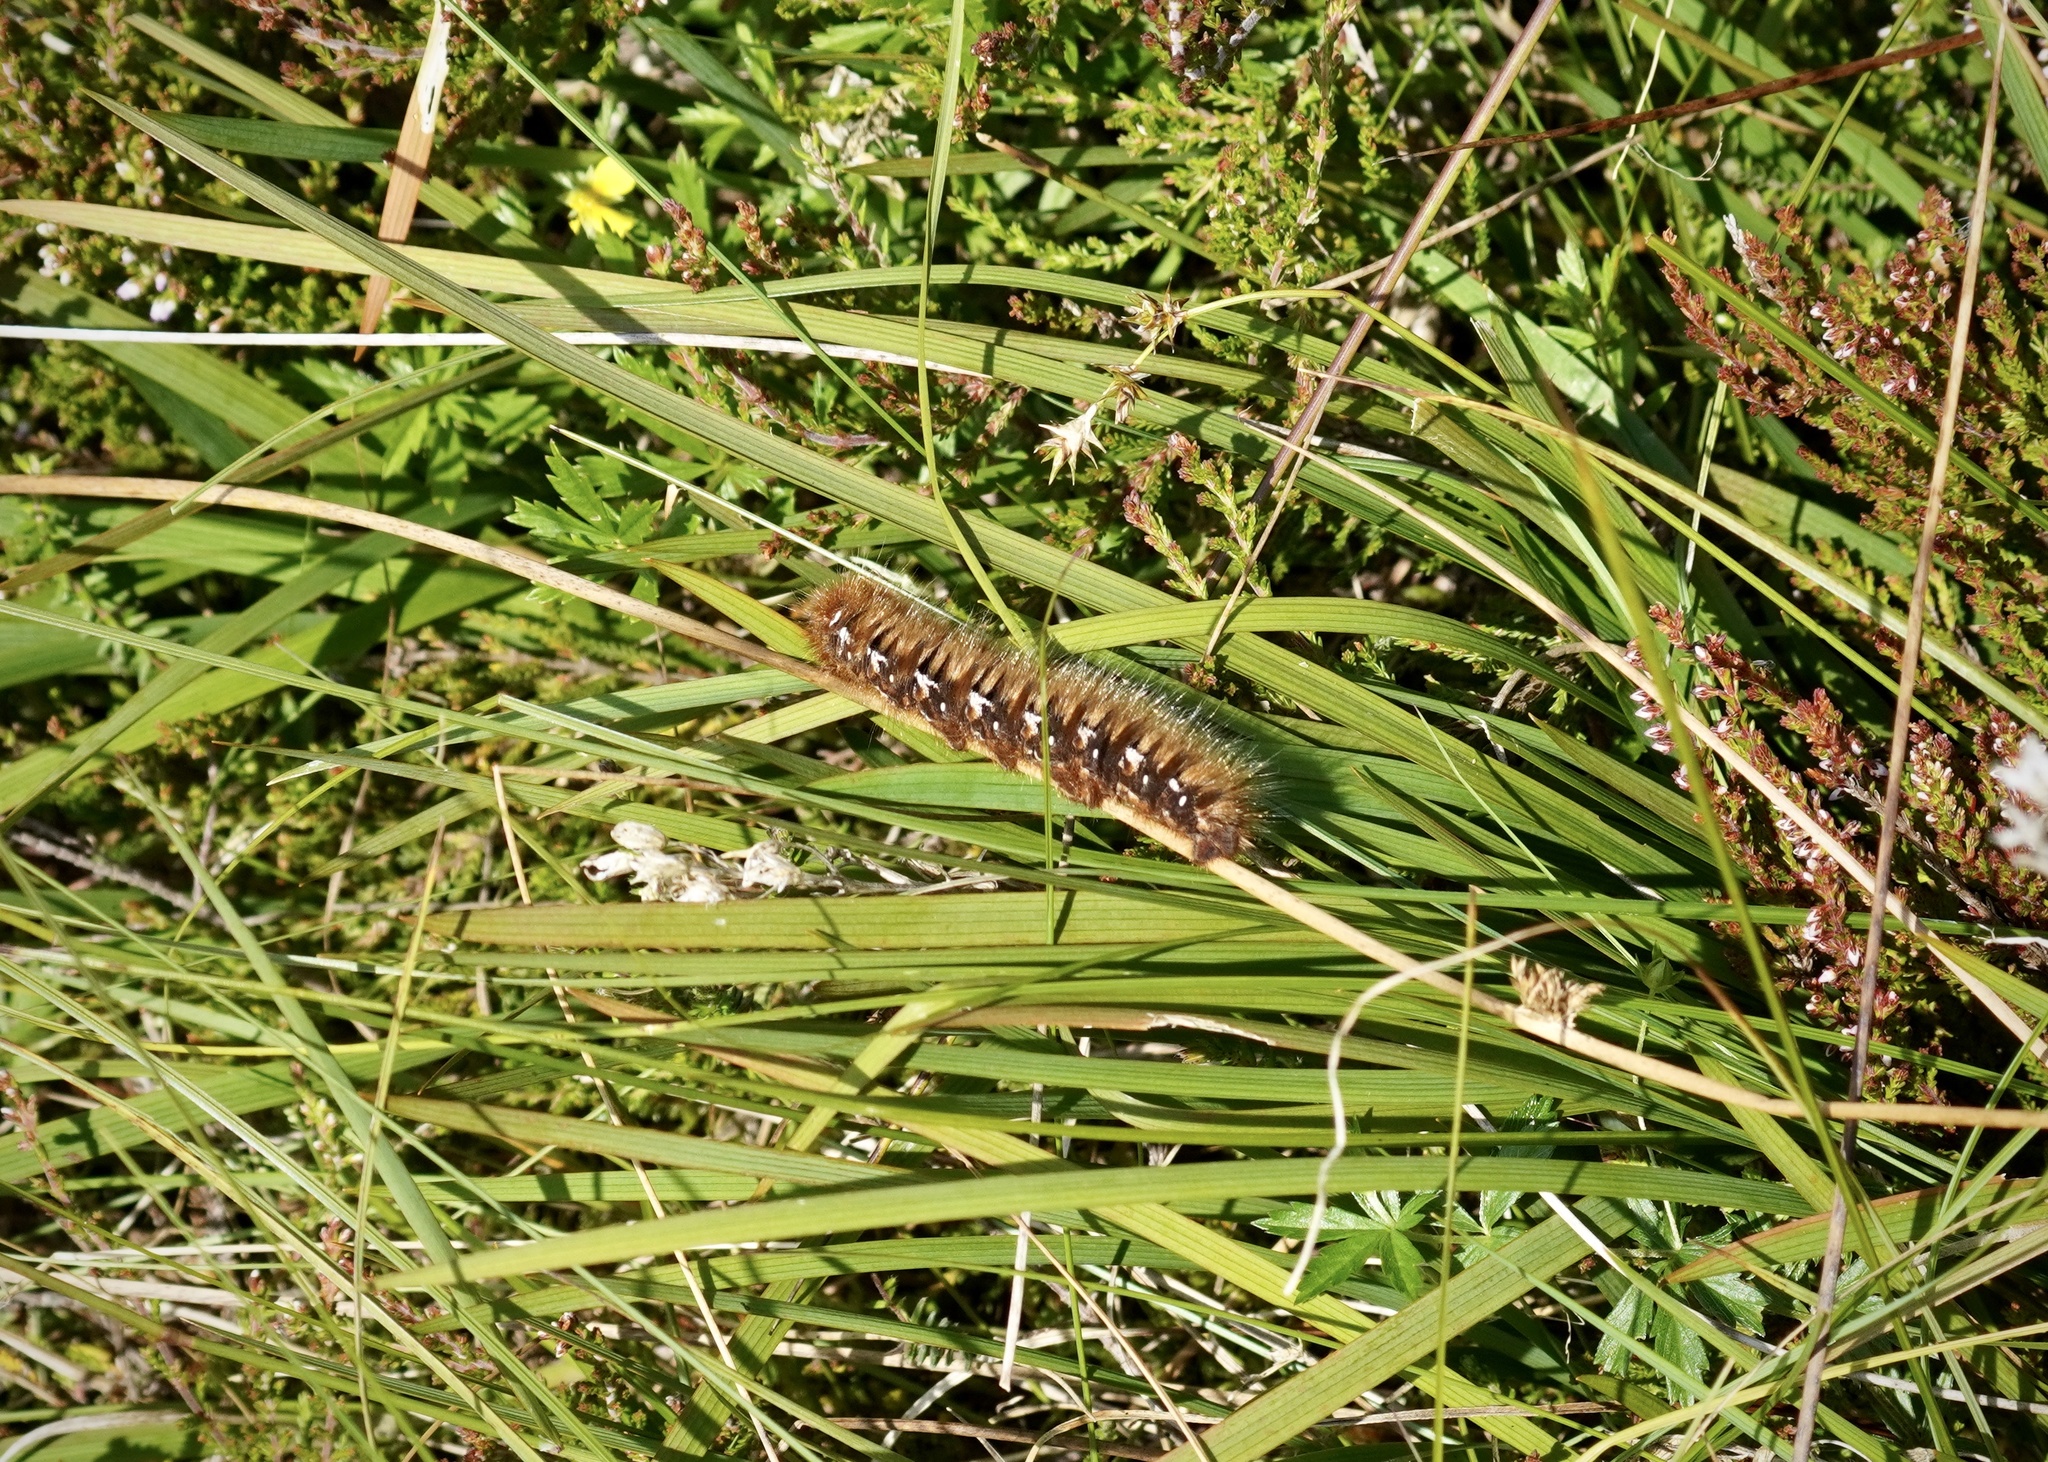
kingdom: Animalia
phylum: Arthropoda
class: Insecta
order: Lepidoptera
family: Lasiocampidae
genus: Lasiocampa
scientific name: Lasiocampa quercus
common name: Oak eggar
